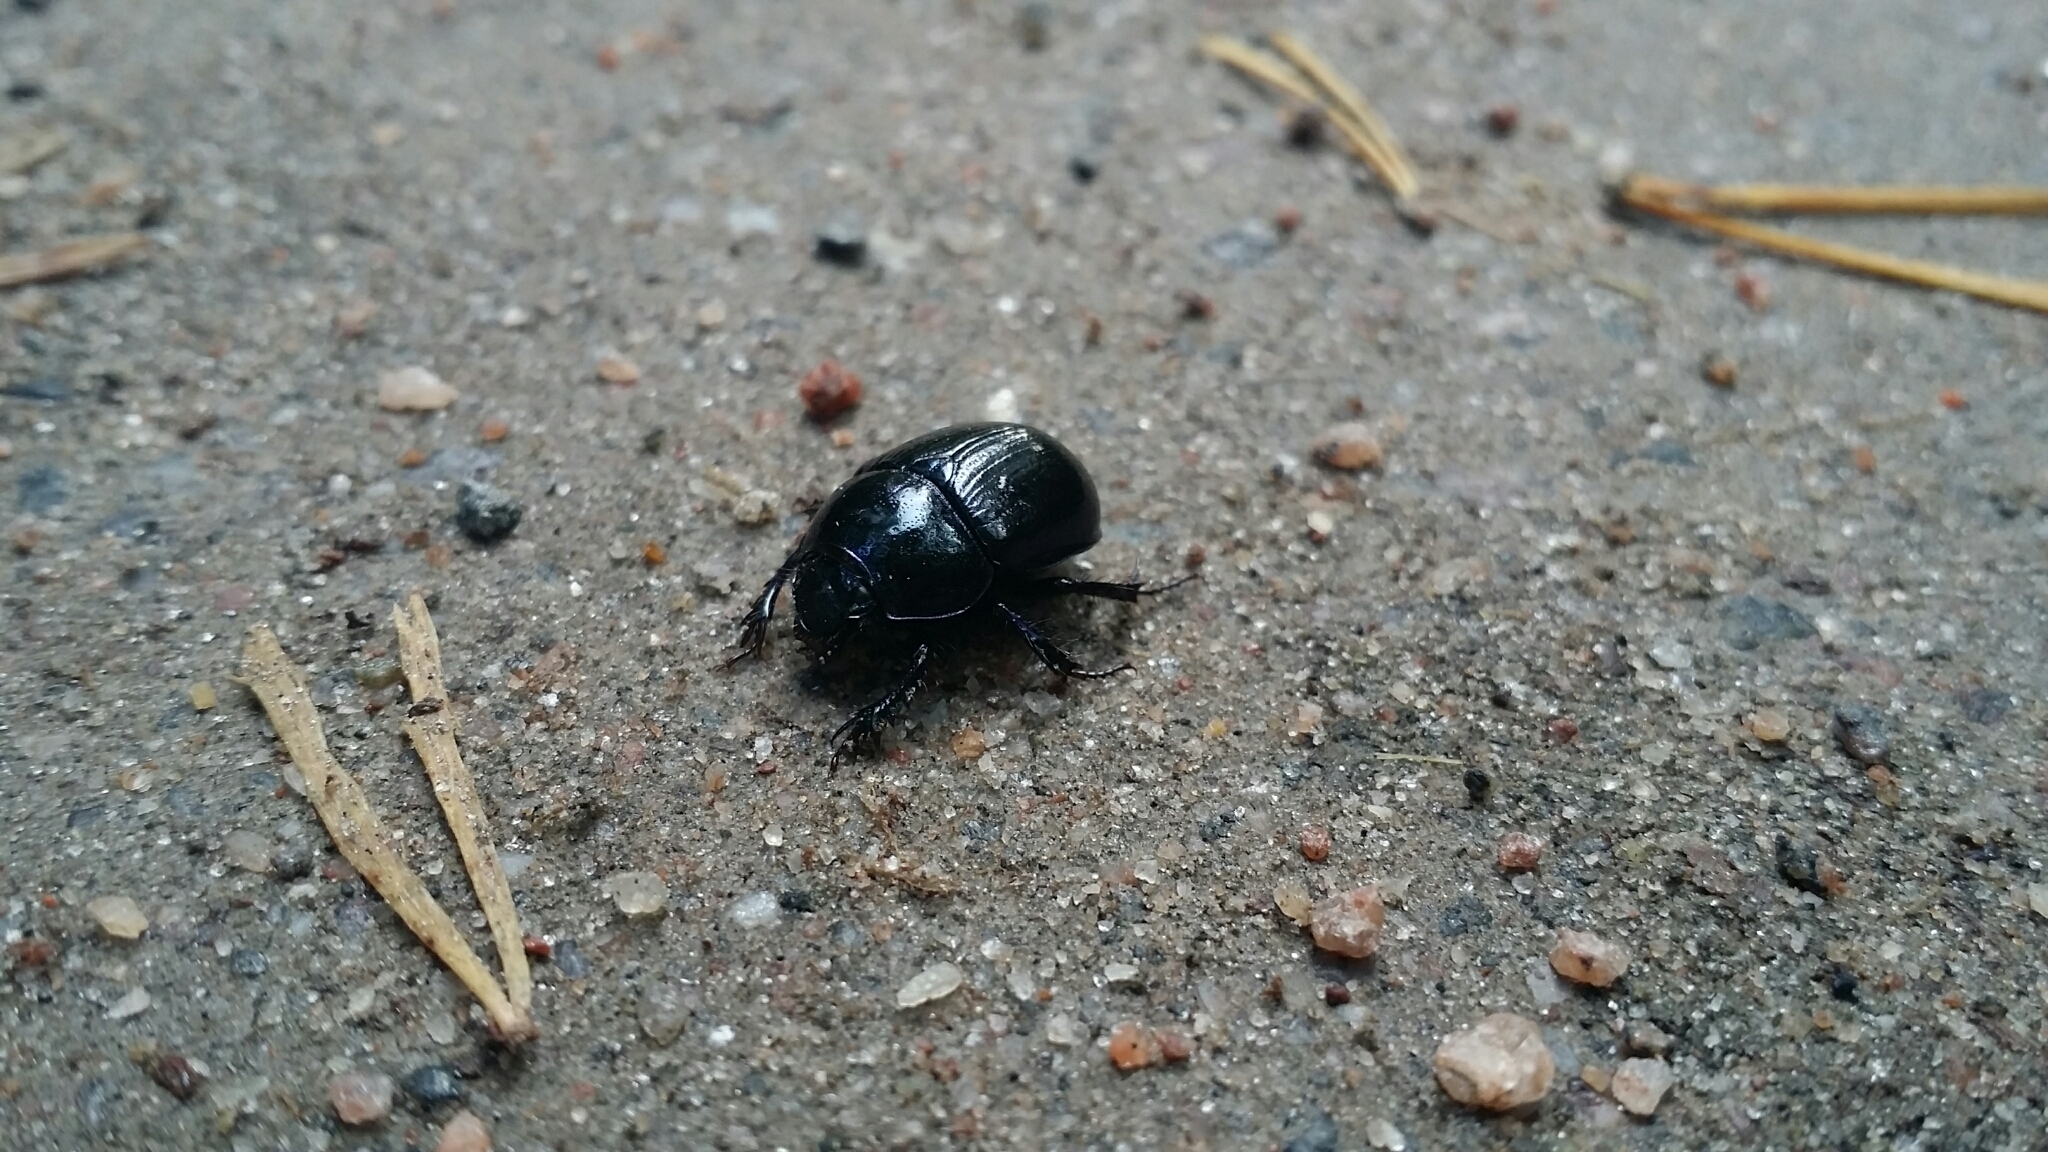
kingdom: Animalia
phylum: Arthropoda
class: Insecta
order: Coleoptera
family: Geotrupidae
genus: Anoplotrupes
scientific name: Anoplotrupes stercorosus
